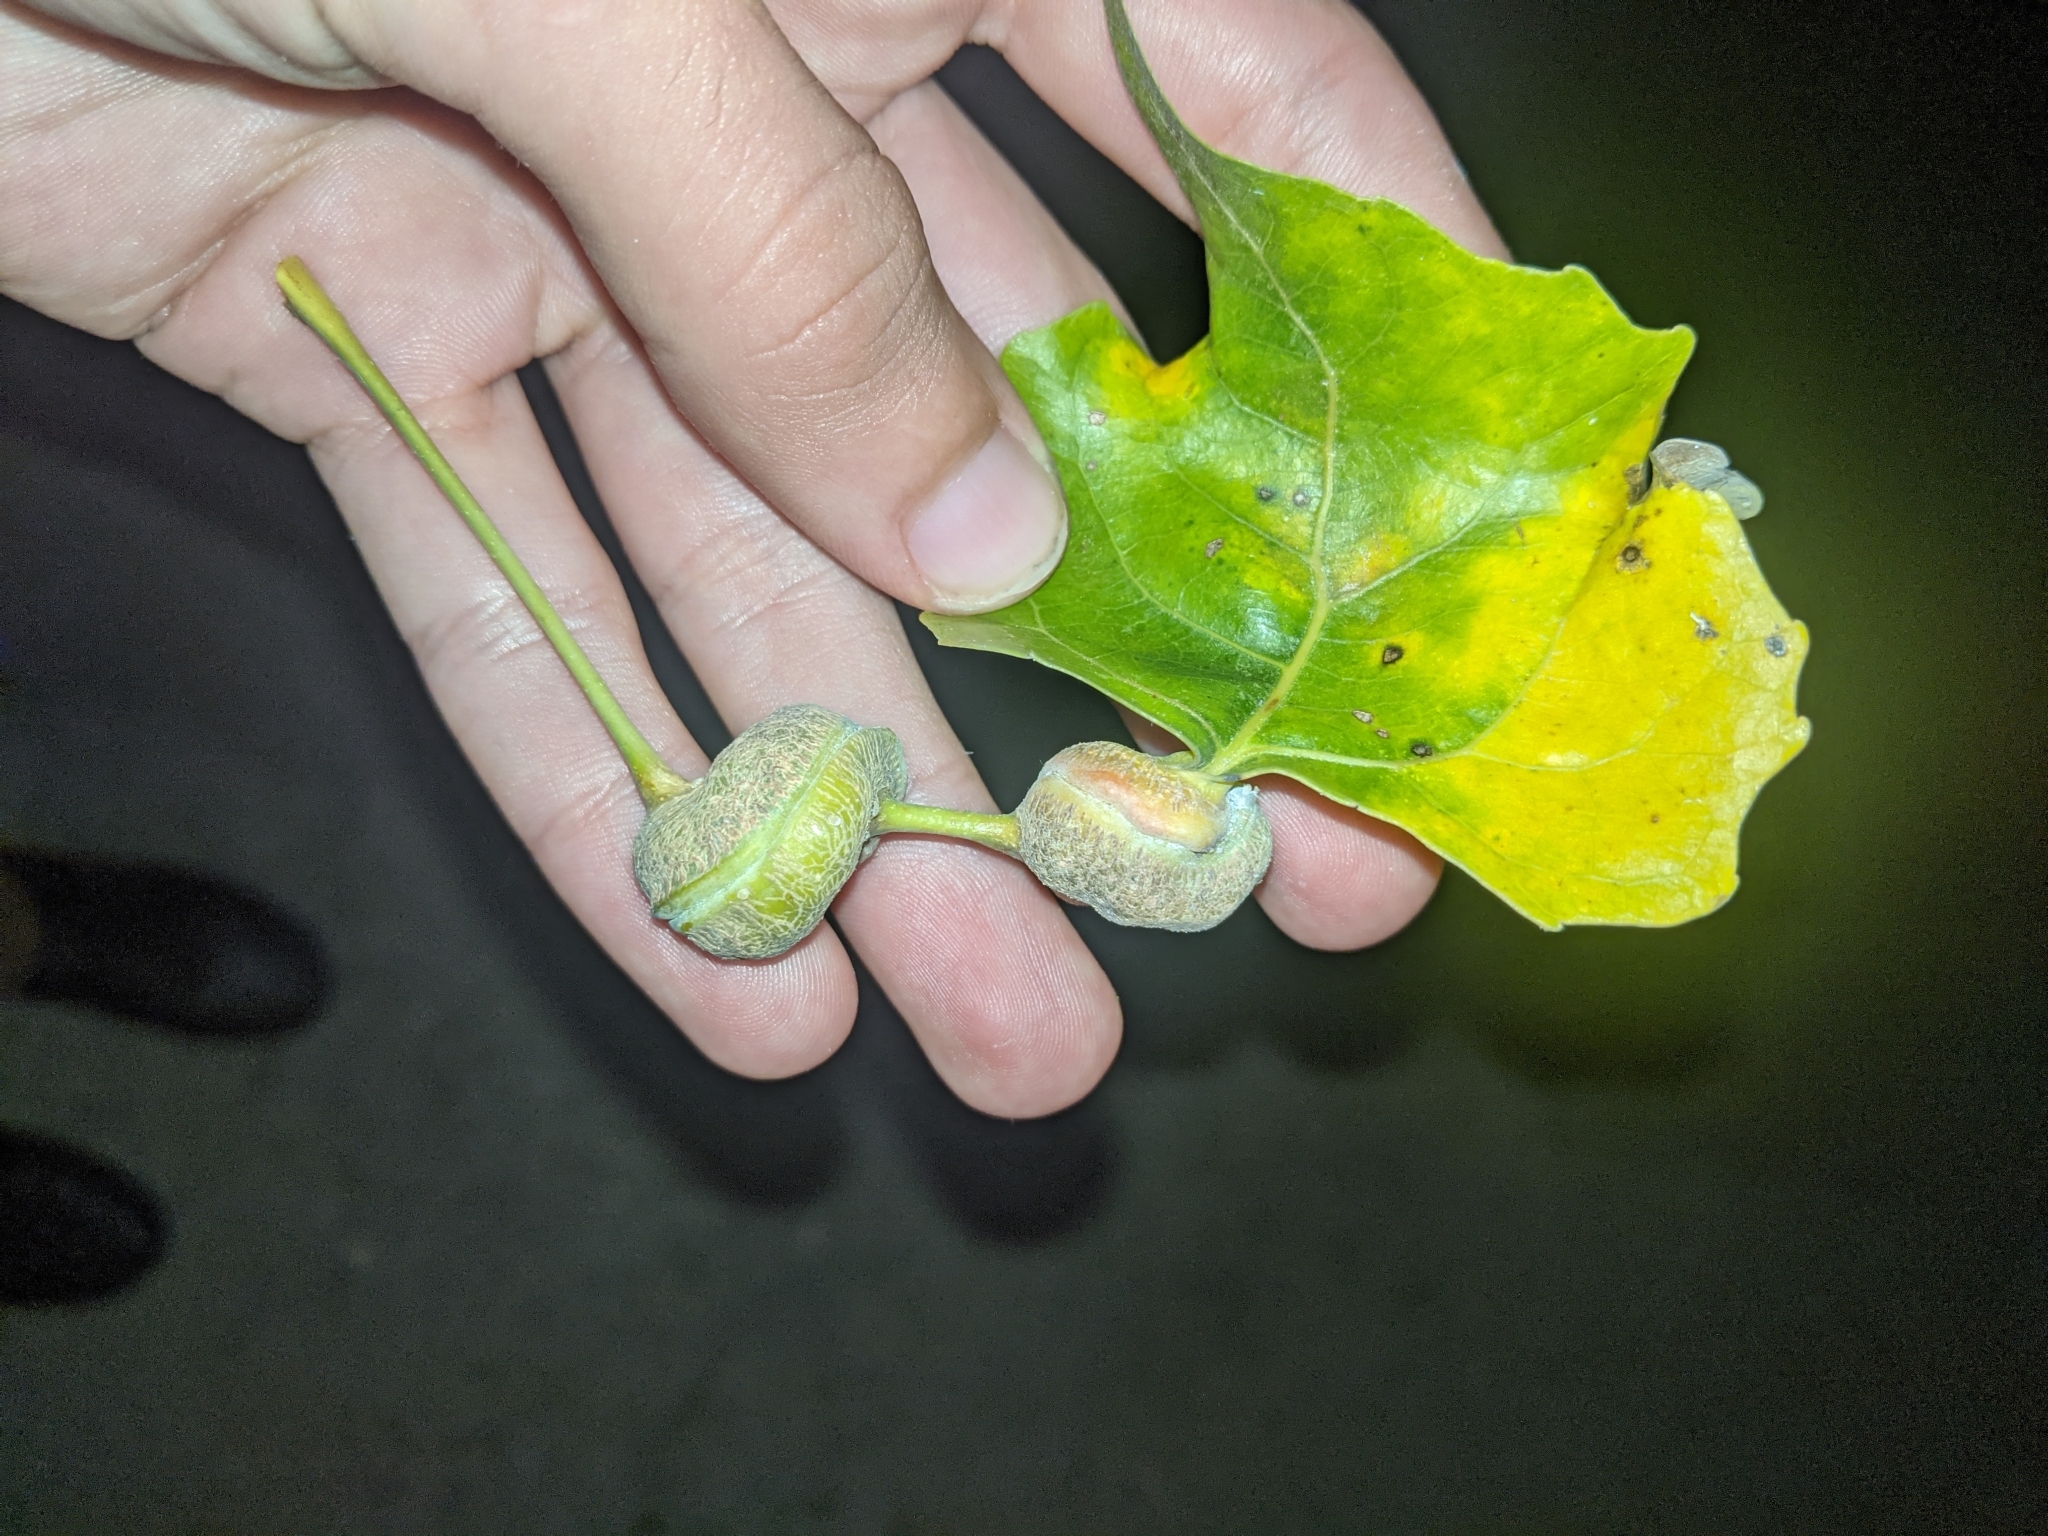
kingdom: Animalia
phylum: Arthropoda
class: Insecta
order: Hemiptera
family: Aphididae
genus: Pemphigus
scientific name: Pemphigus spyrothecae
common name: Aphid
